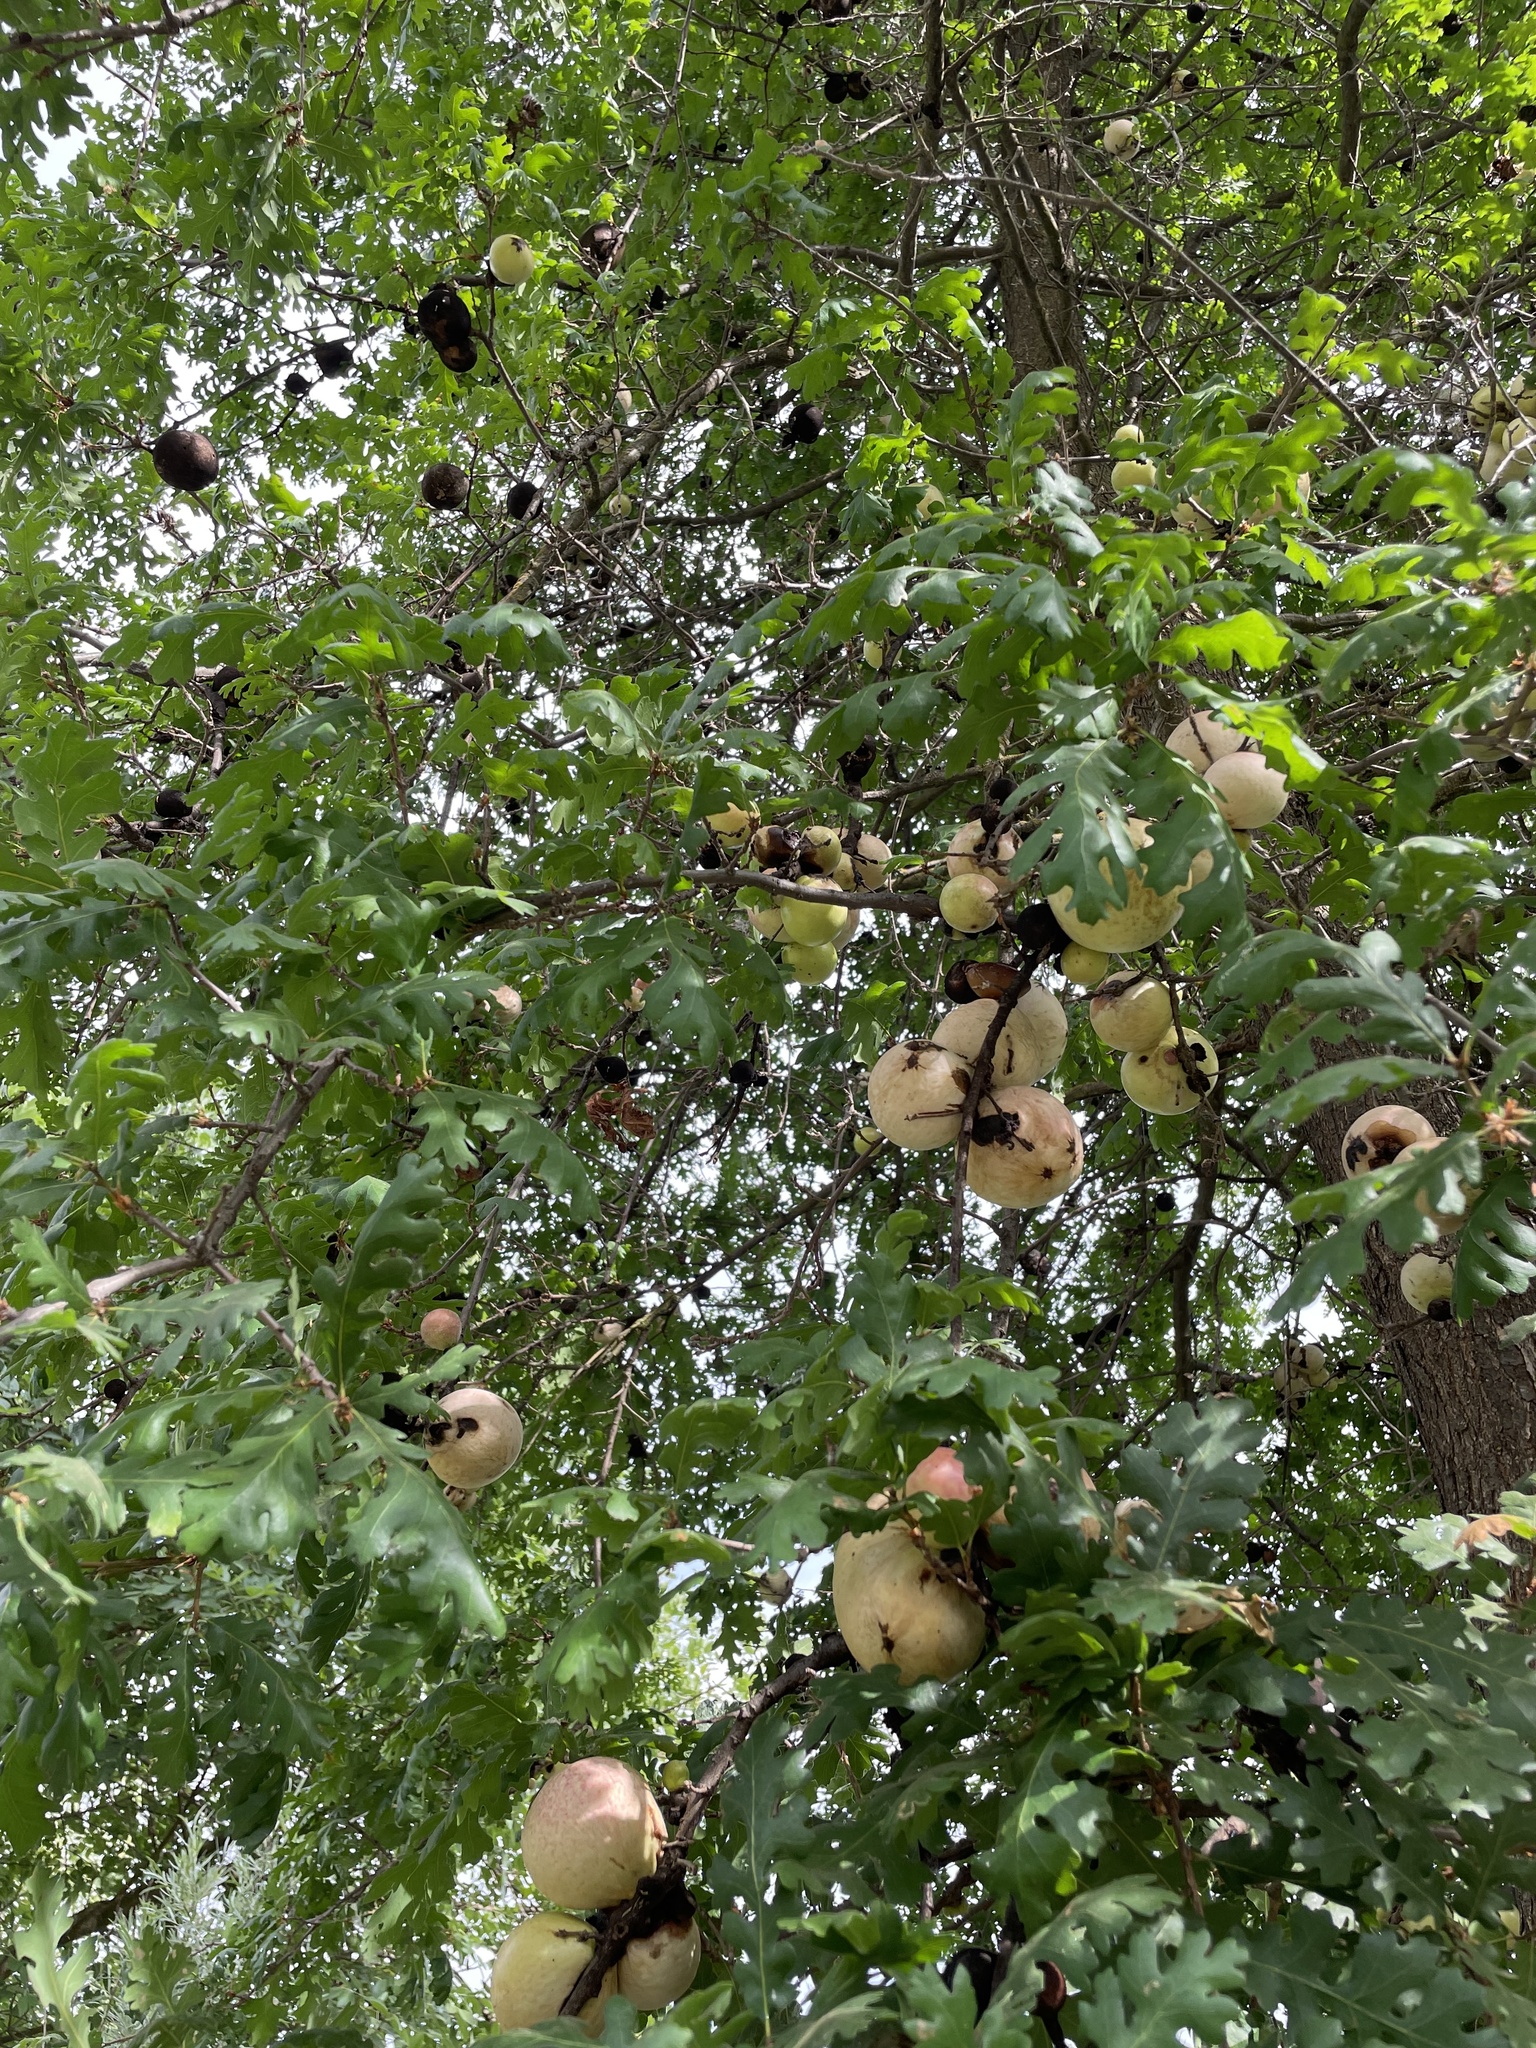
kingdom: Plantae
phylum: Tracheophyta
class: Magnoliopsida
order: Fagales
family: Fagaceae
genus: Quercus
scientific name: Quercus lobata
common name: Valley oak
